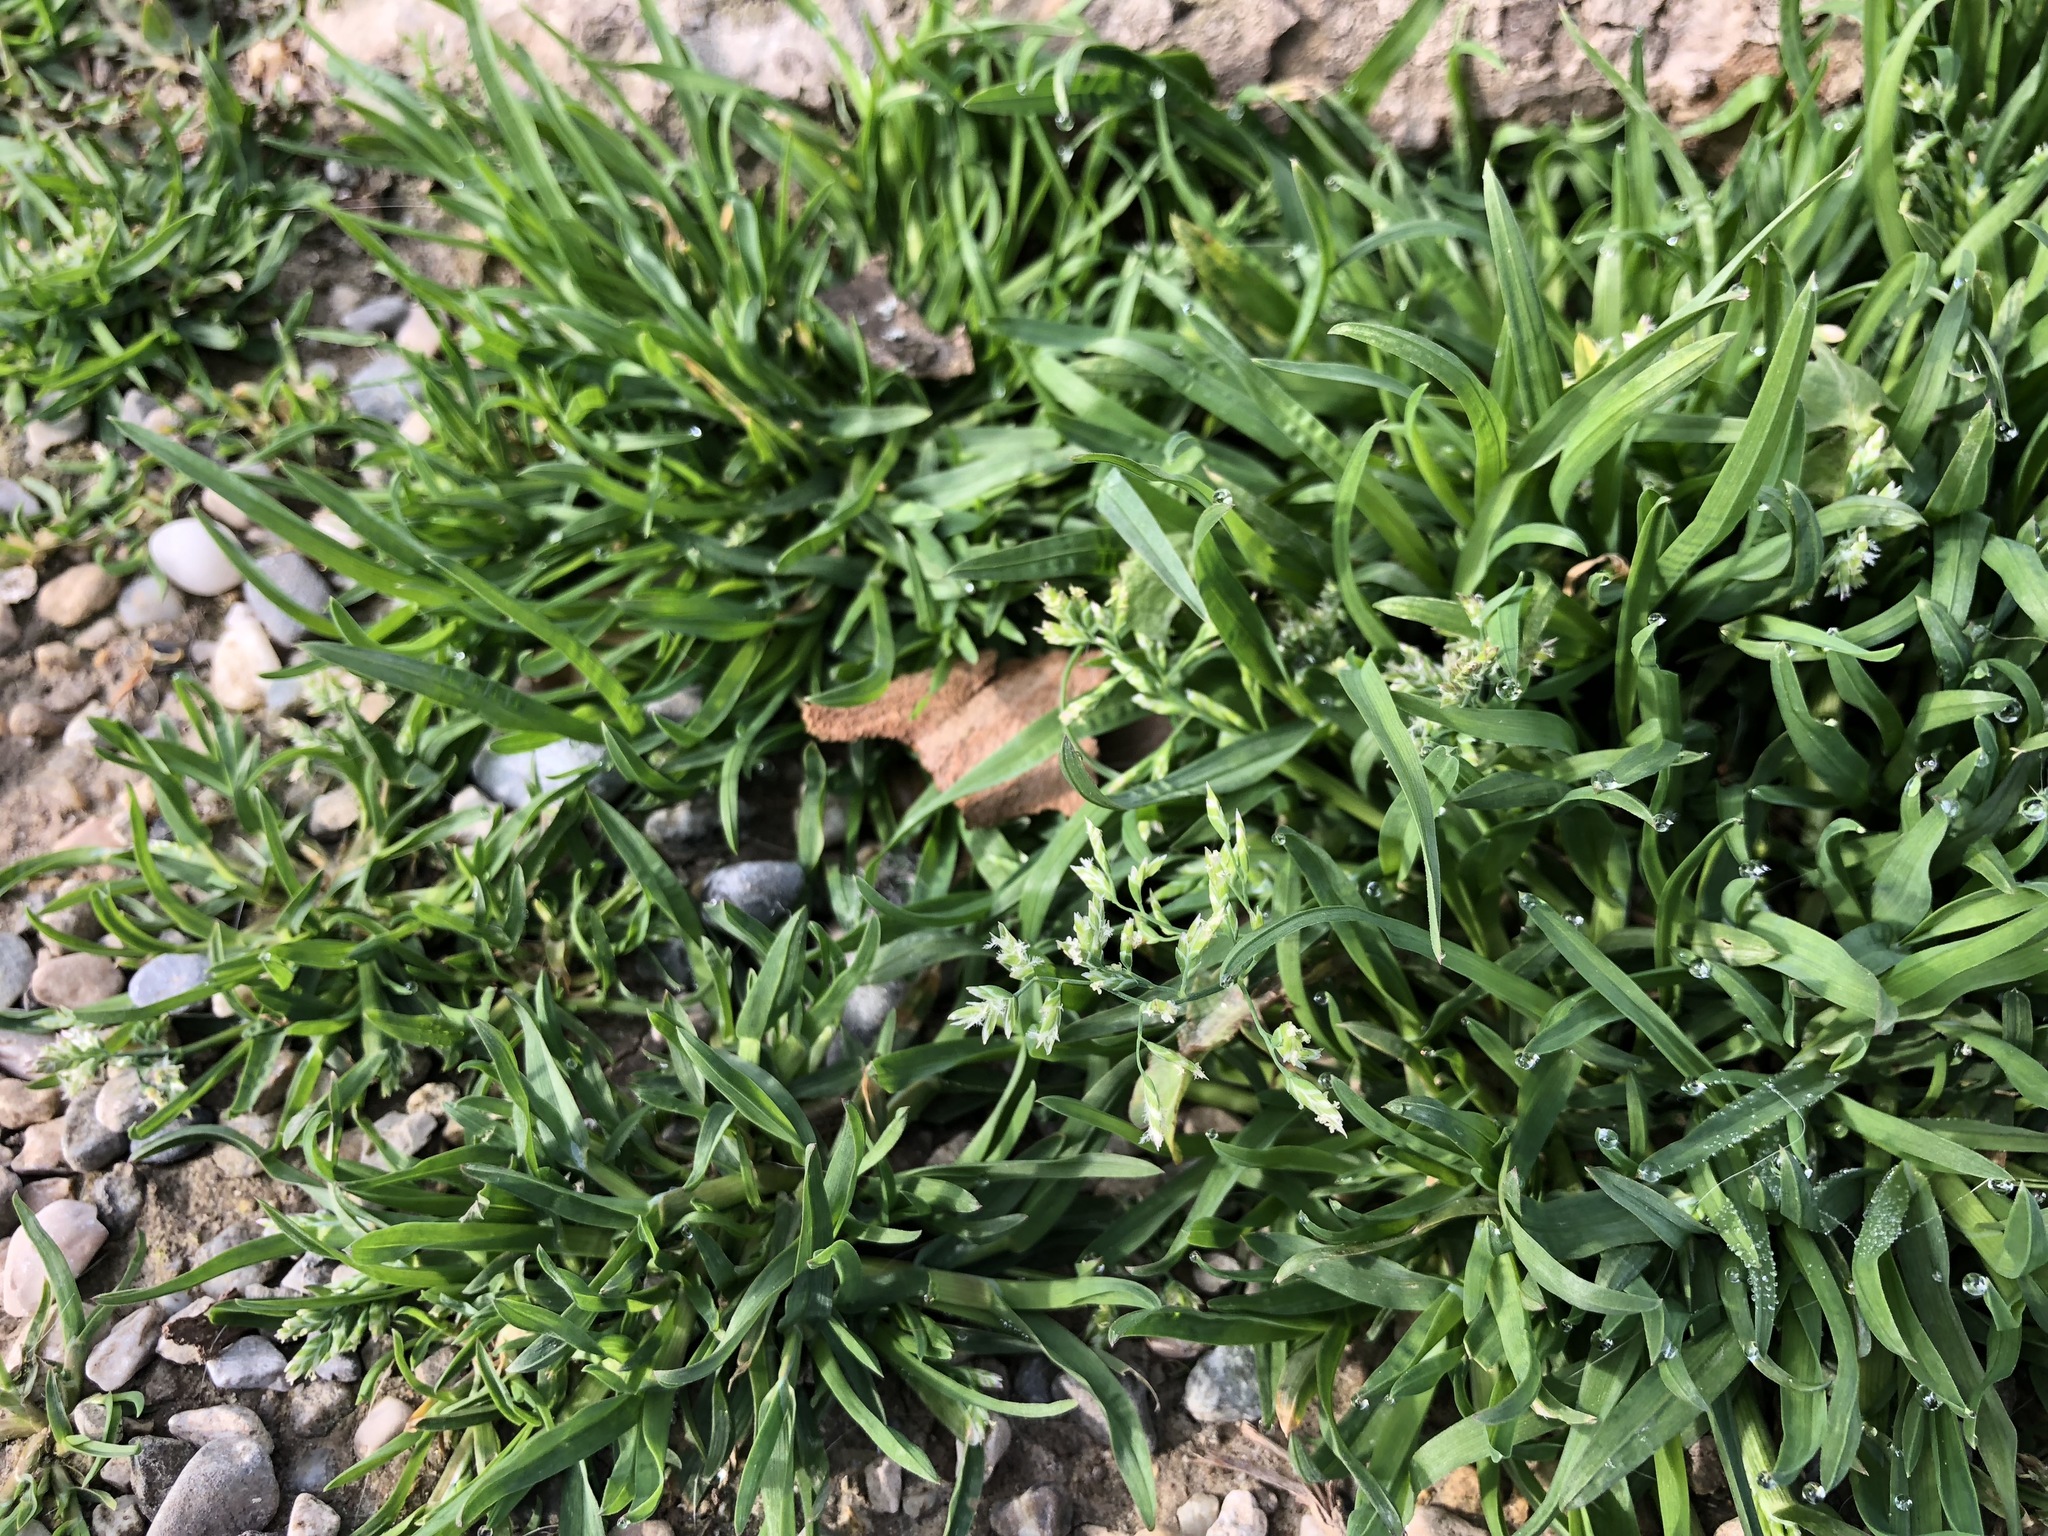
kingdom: Plantae
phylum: Tracheophyta
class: Liliopsida
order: Poales
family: Poaceae
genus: Poa
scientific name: Poa annua
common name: Annual bluegrass
